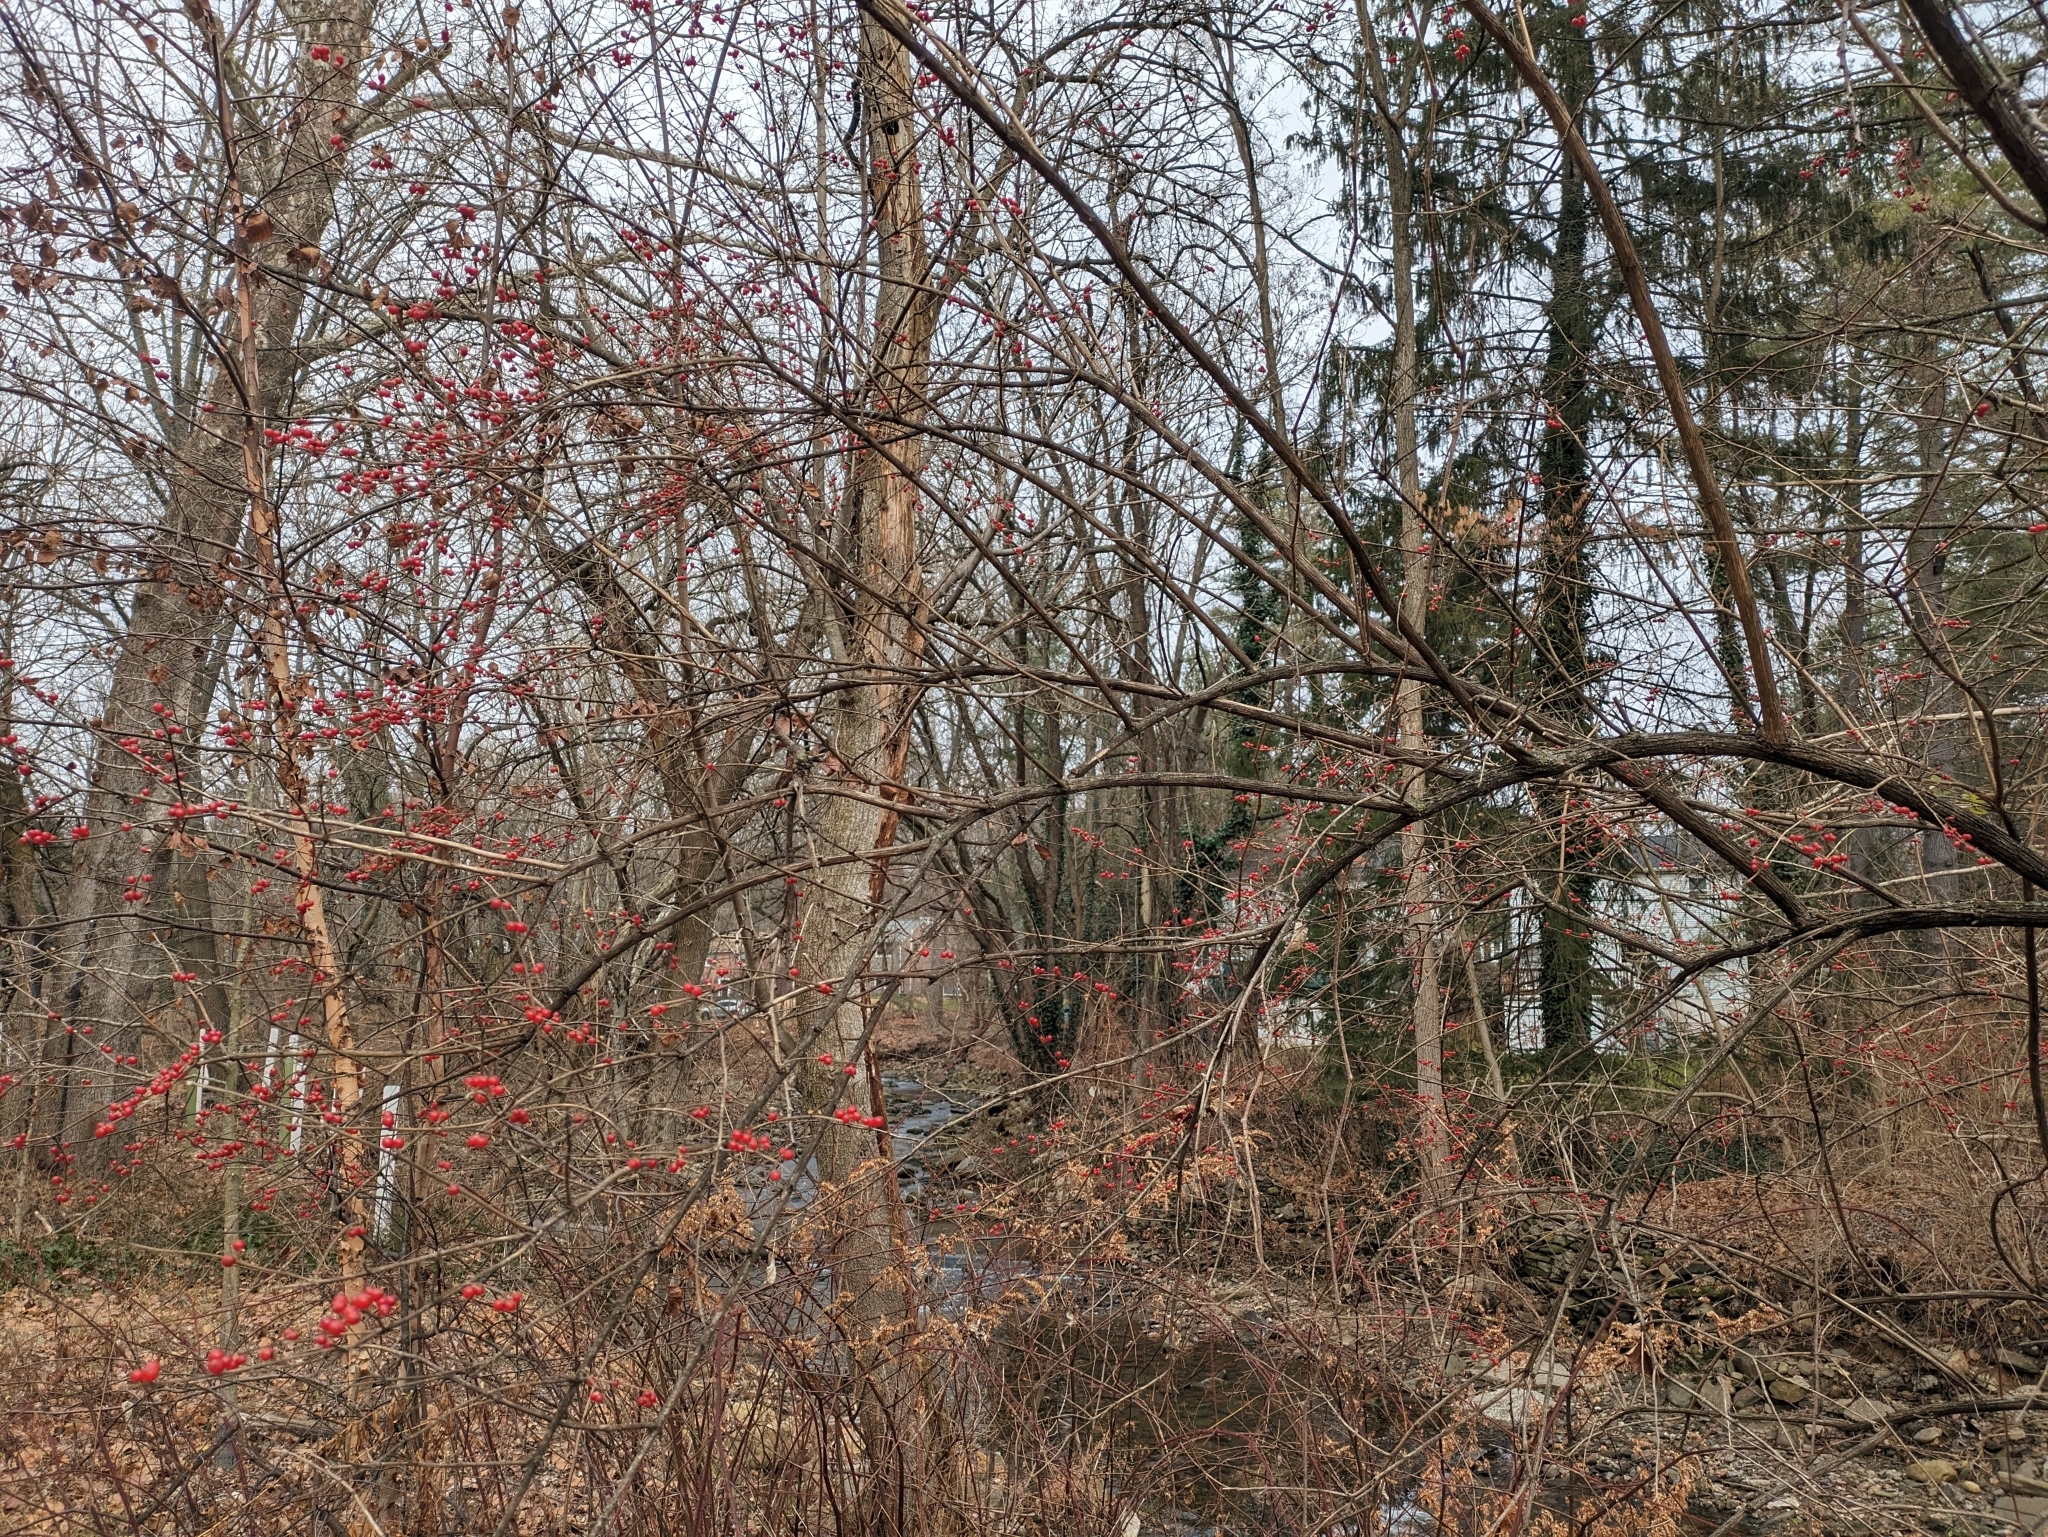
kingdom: Plantae
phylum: Tracheophyta
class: Magnoliopsida
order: Dipsacales
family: Caprifoliaceae
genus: Lonicera
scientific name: Lonicera maackii
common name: Amur honeysuckle
